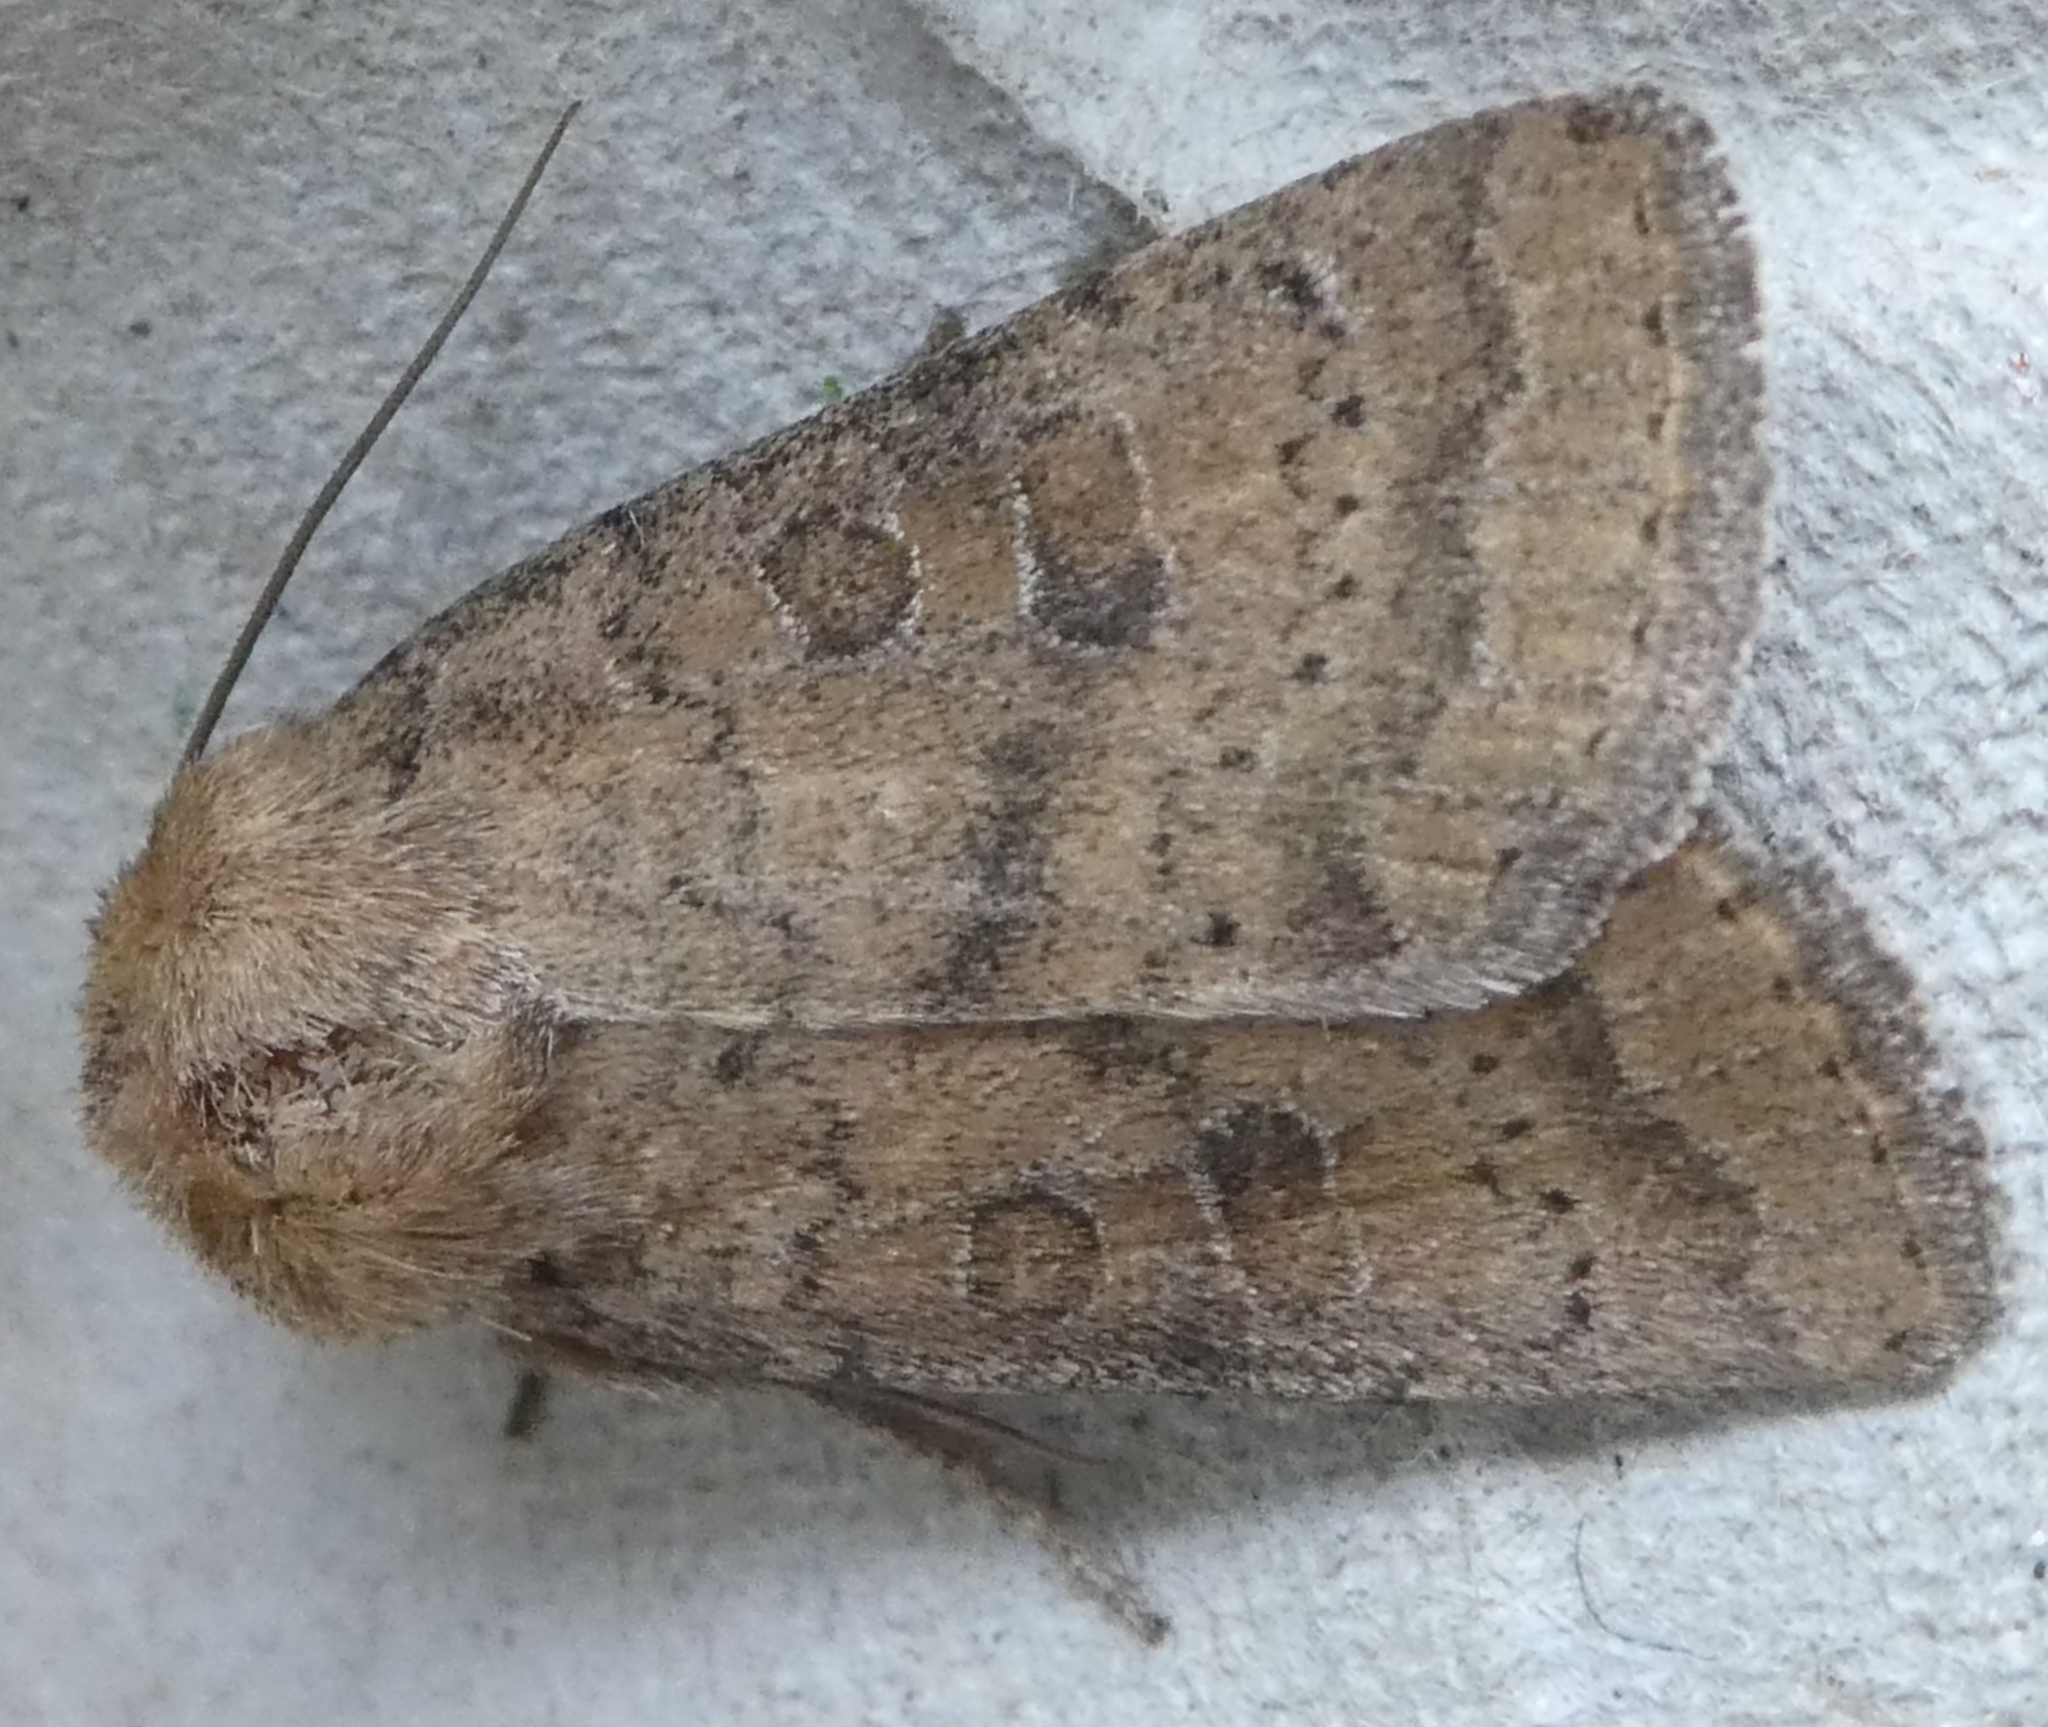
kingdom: Animalia
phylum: Arthropoda
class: Insecta
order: Lepidoptera
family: Noctuidae
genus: Hoplodrina
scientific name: Hoplodrina octogenaria
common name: Uncertain
